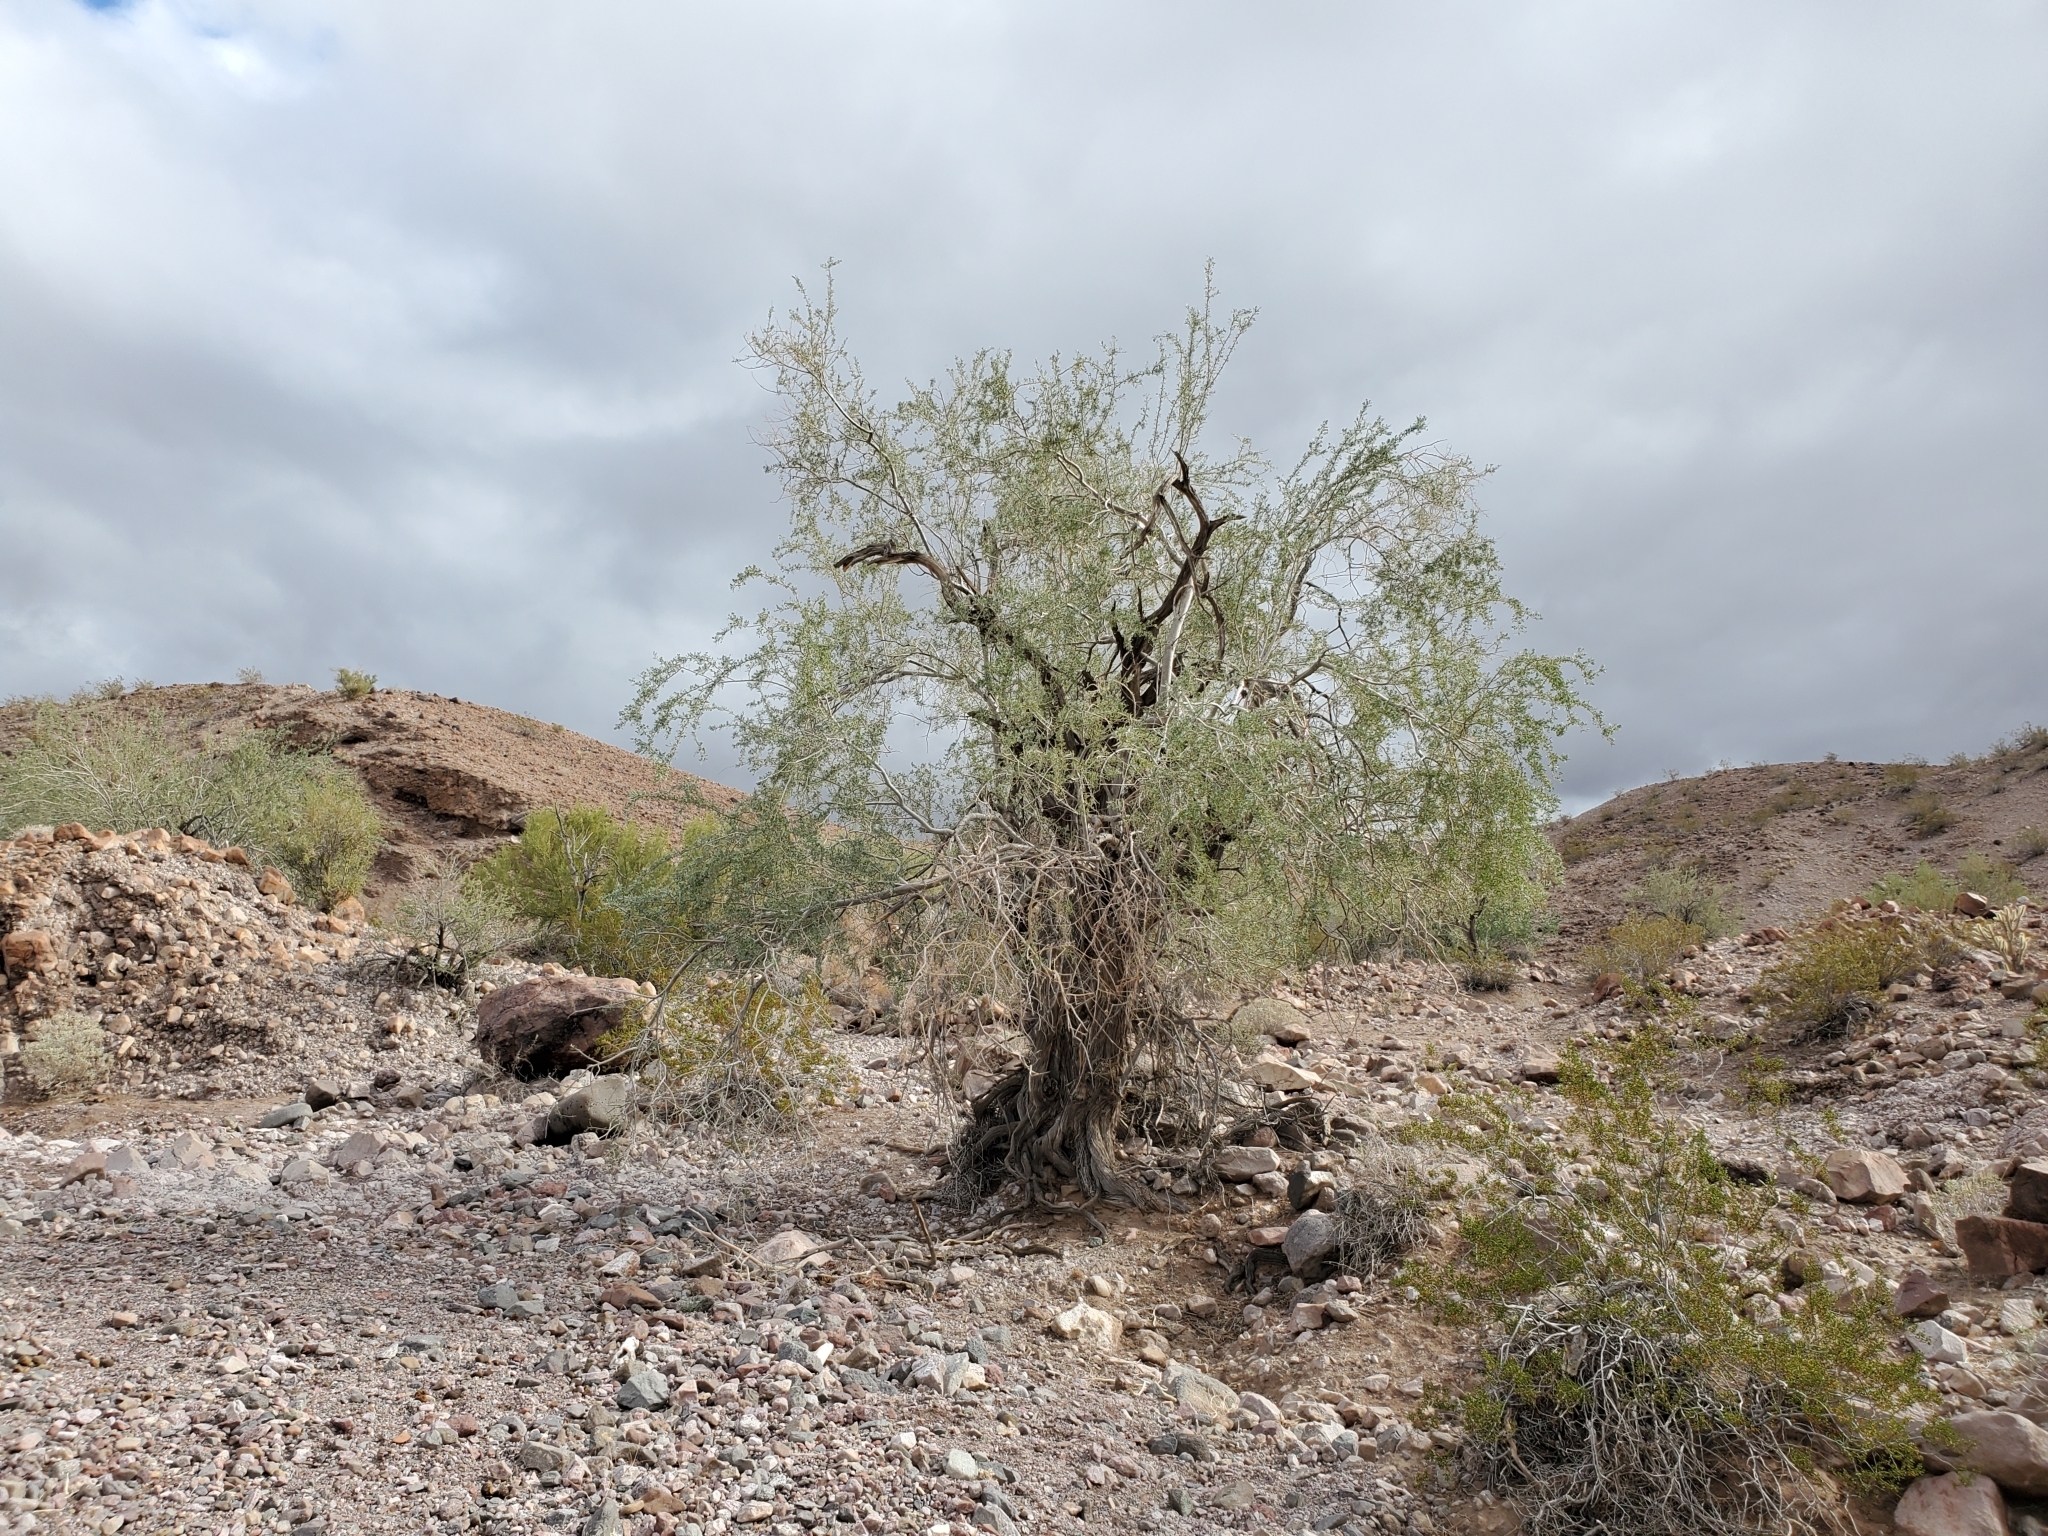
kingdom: Plantae
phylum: Tracheophyta
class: Magnoliopsida
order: Fabales
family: Fabaceae
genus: Olneya
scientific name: Olneya tesota
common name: Desert ironwood
